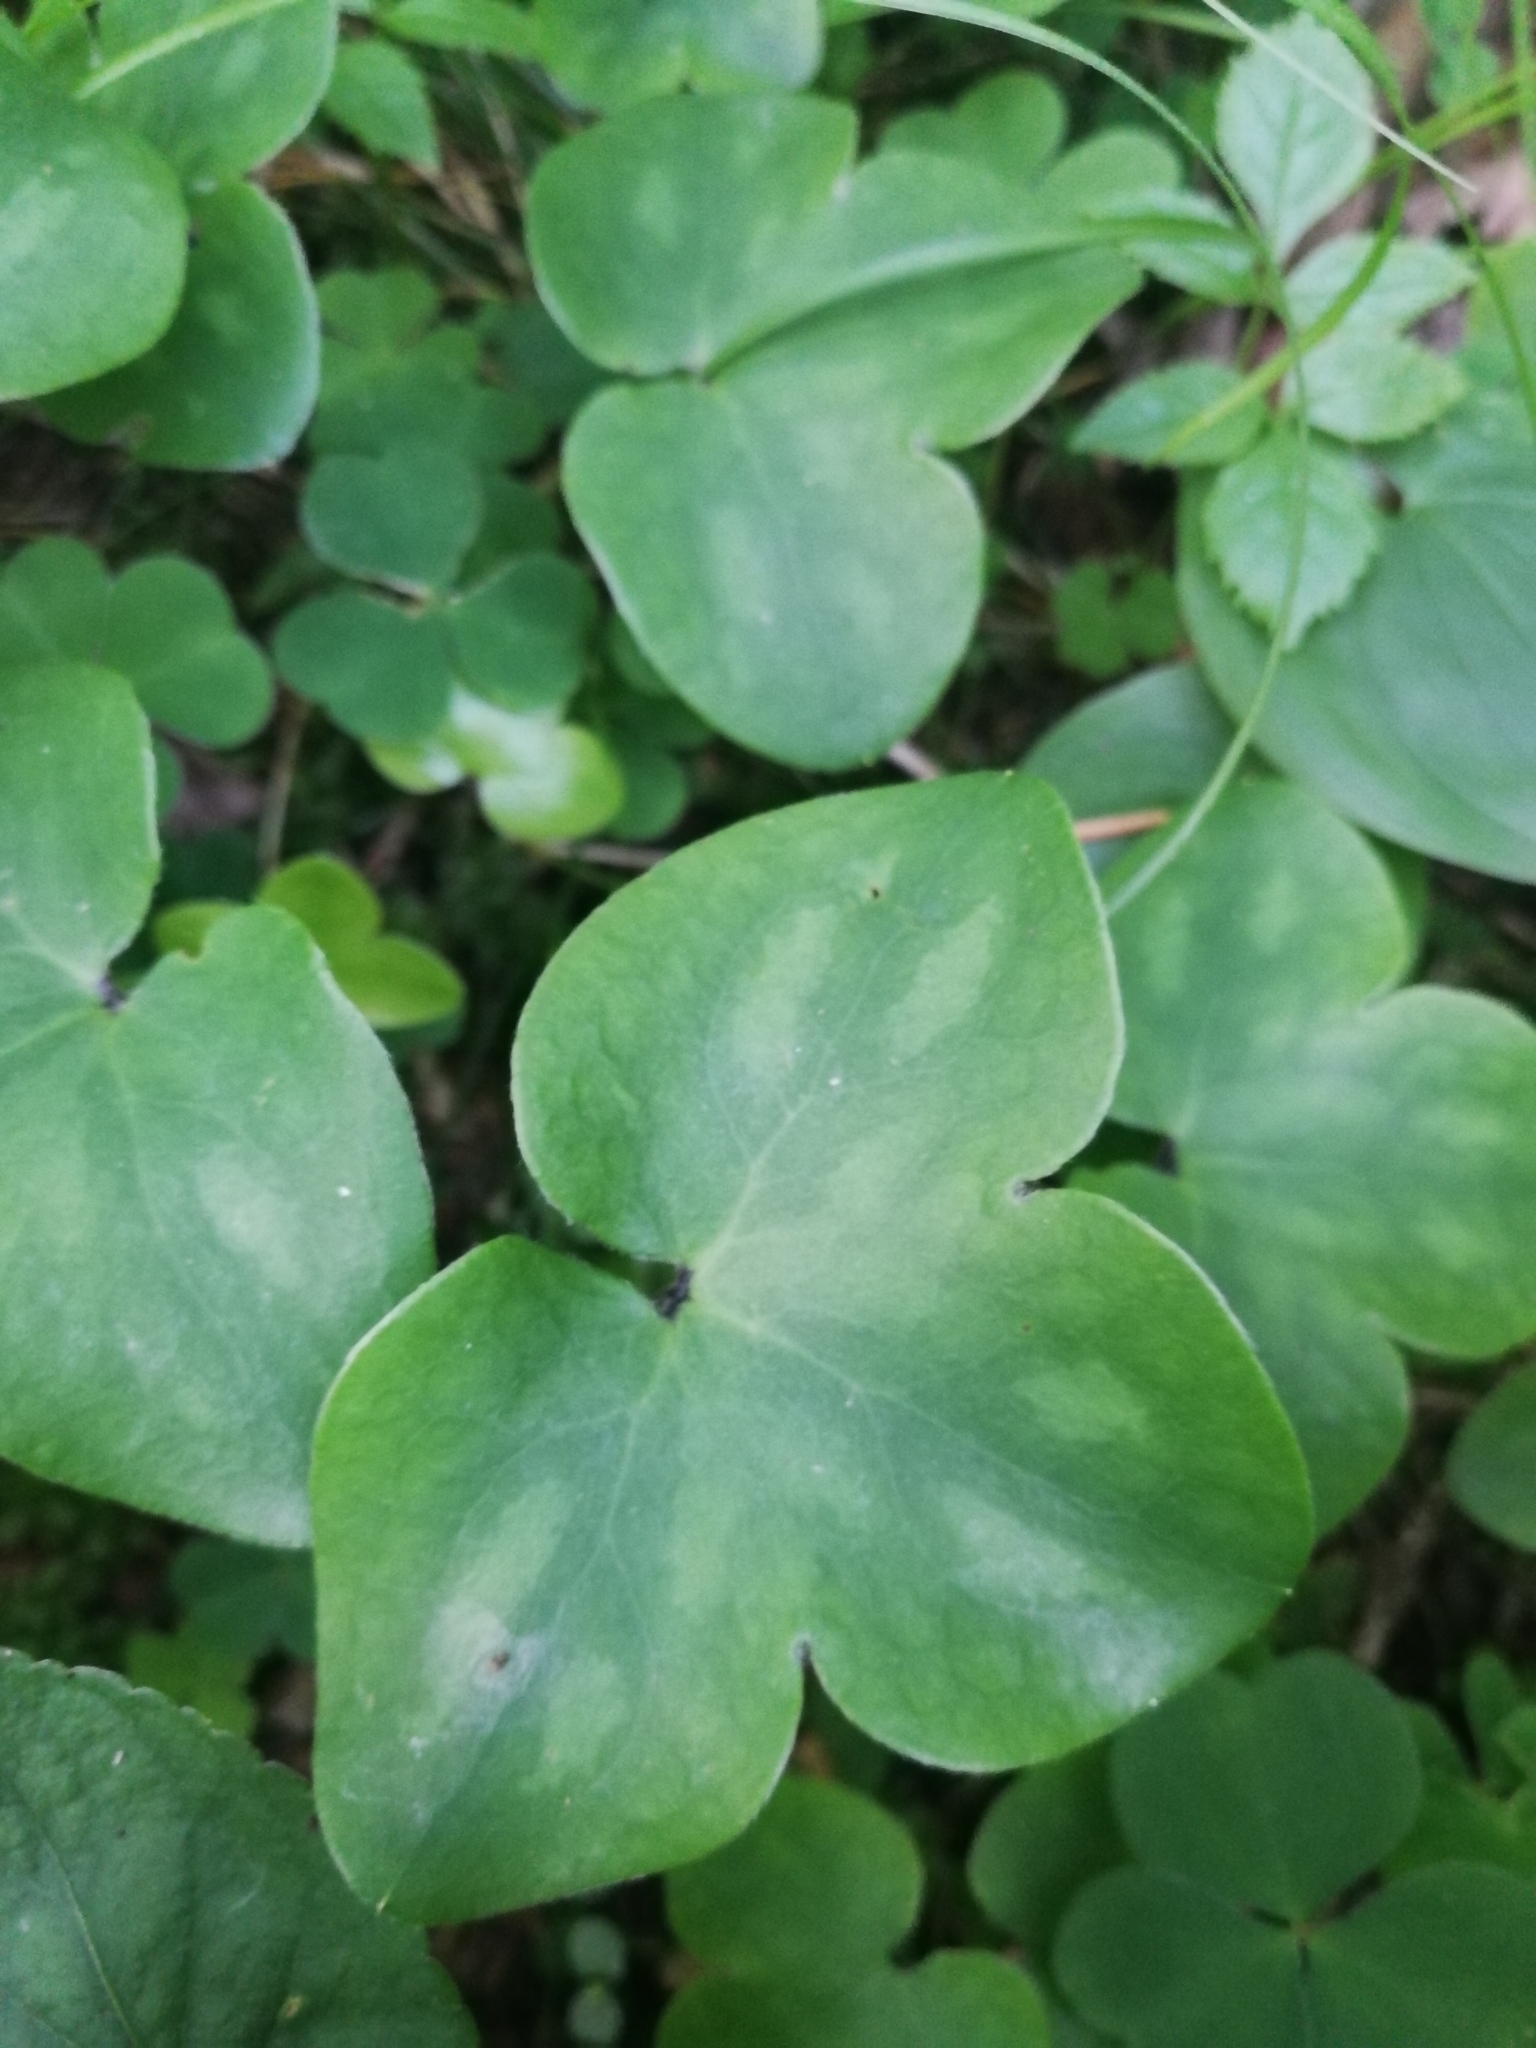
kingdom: Plantae
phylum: Tracheophyta
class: Magnoliopsida
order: Ranunculales
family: Ranunculaceae
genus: Hepatica
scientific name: Hepatica nobilis
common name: Liverleaf
